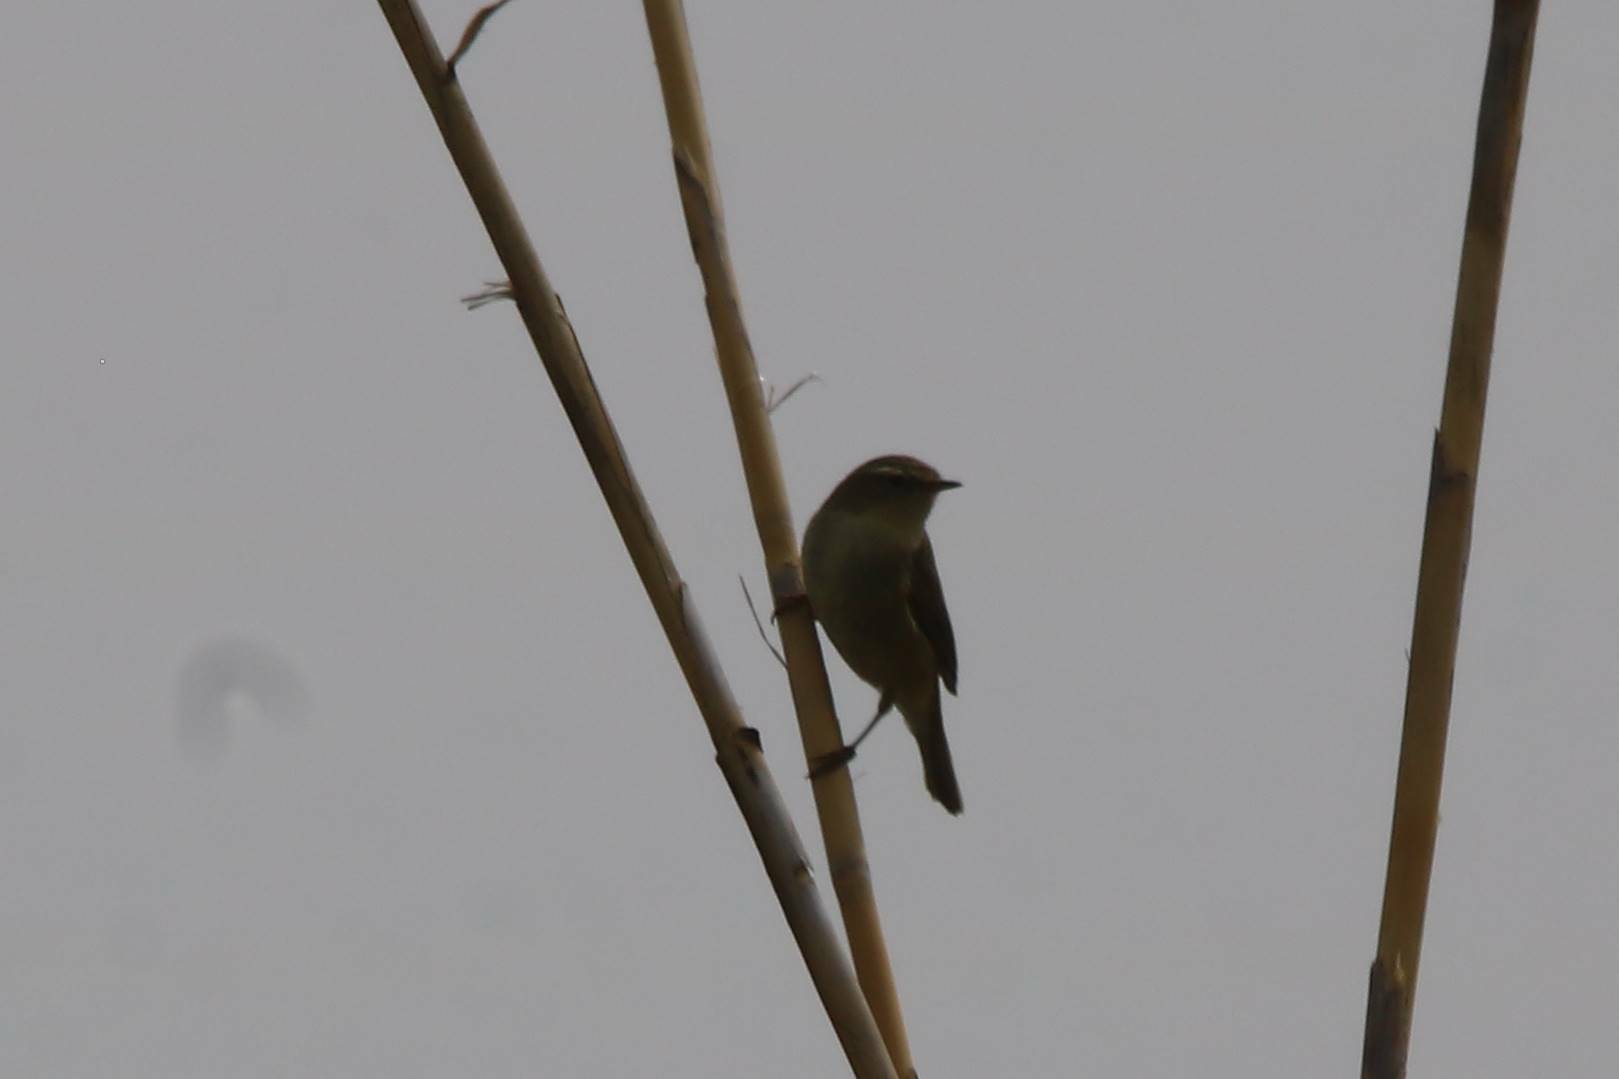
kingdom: Animalia
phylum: Chordata
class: Aves
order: Passeriformes
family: Phylloscopidae
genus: Phylloscopus
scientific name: Phylloscopus collybita
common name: Common chiffchaff
